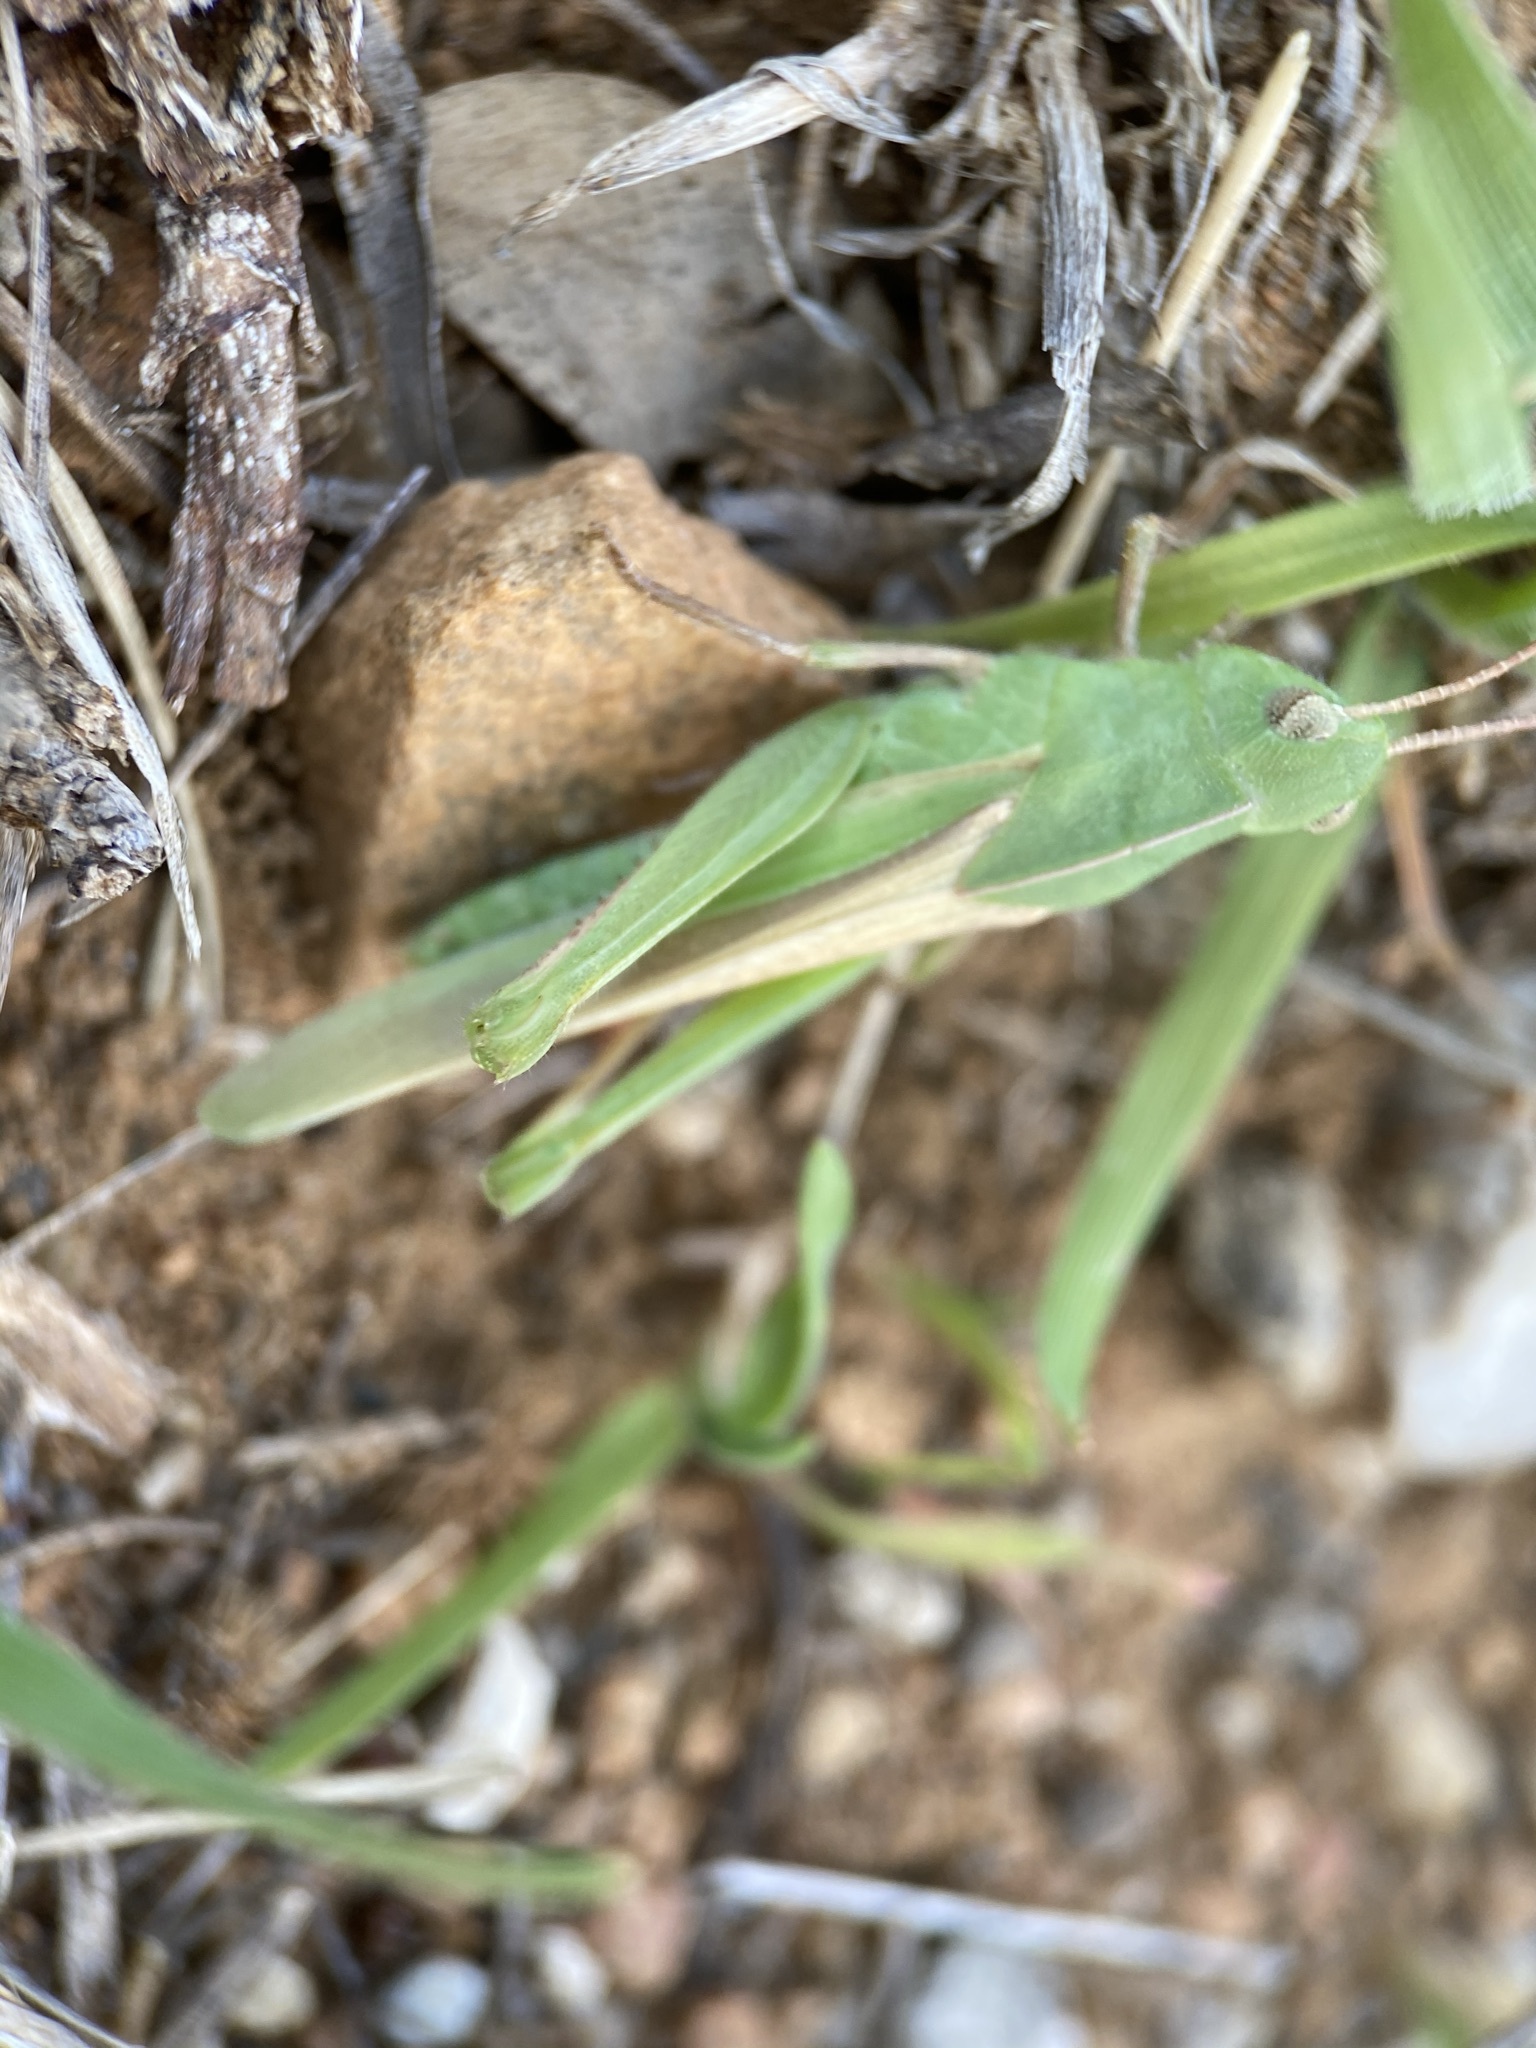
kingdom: Animalia
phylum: Arthropoda
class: Insecta
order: Orthoptera
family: Acrididae
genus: Chortophaga
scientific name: Chortophaga viridifasciata
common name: Green-striped grasshopper
